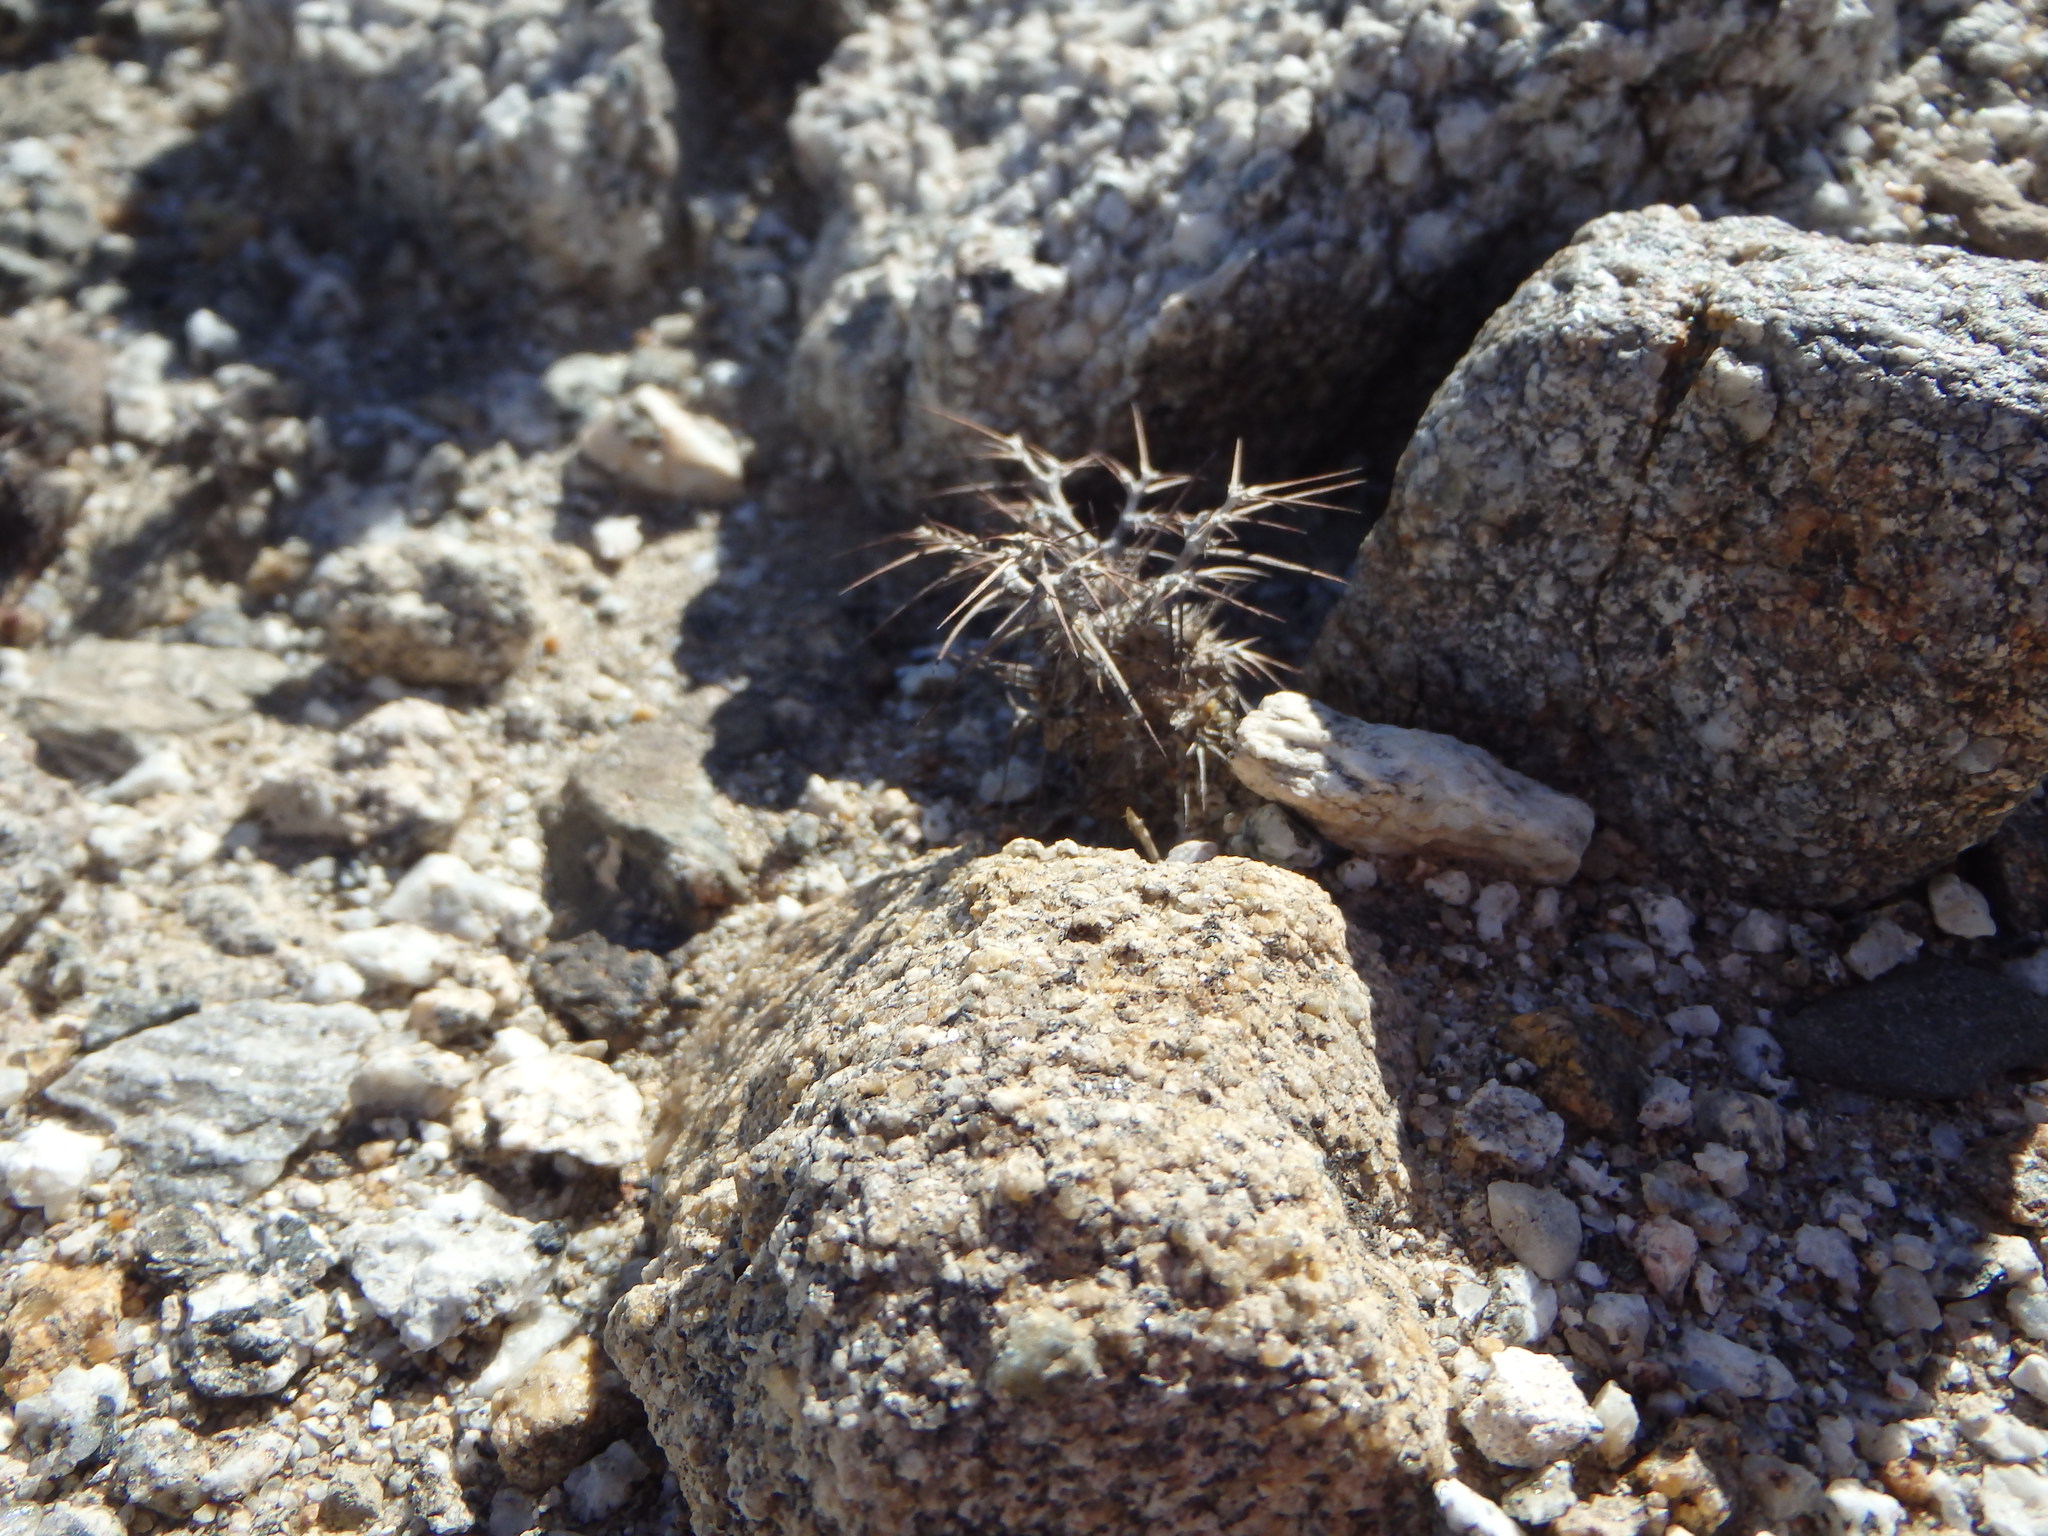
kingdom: Plantae
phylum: Tracheophyta
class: Magnoliopsida
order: Caryophyllales
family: Polygonaceae
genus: Chorizanthe
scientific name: Chorizanthe rigida
